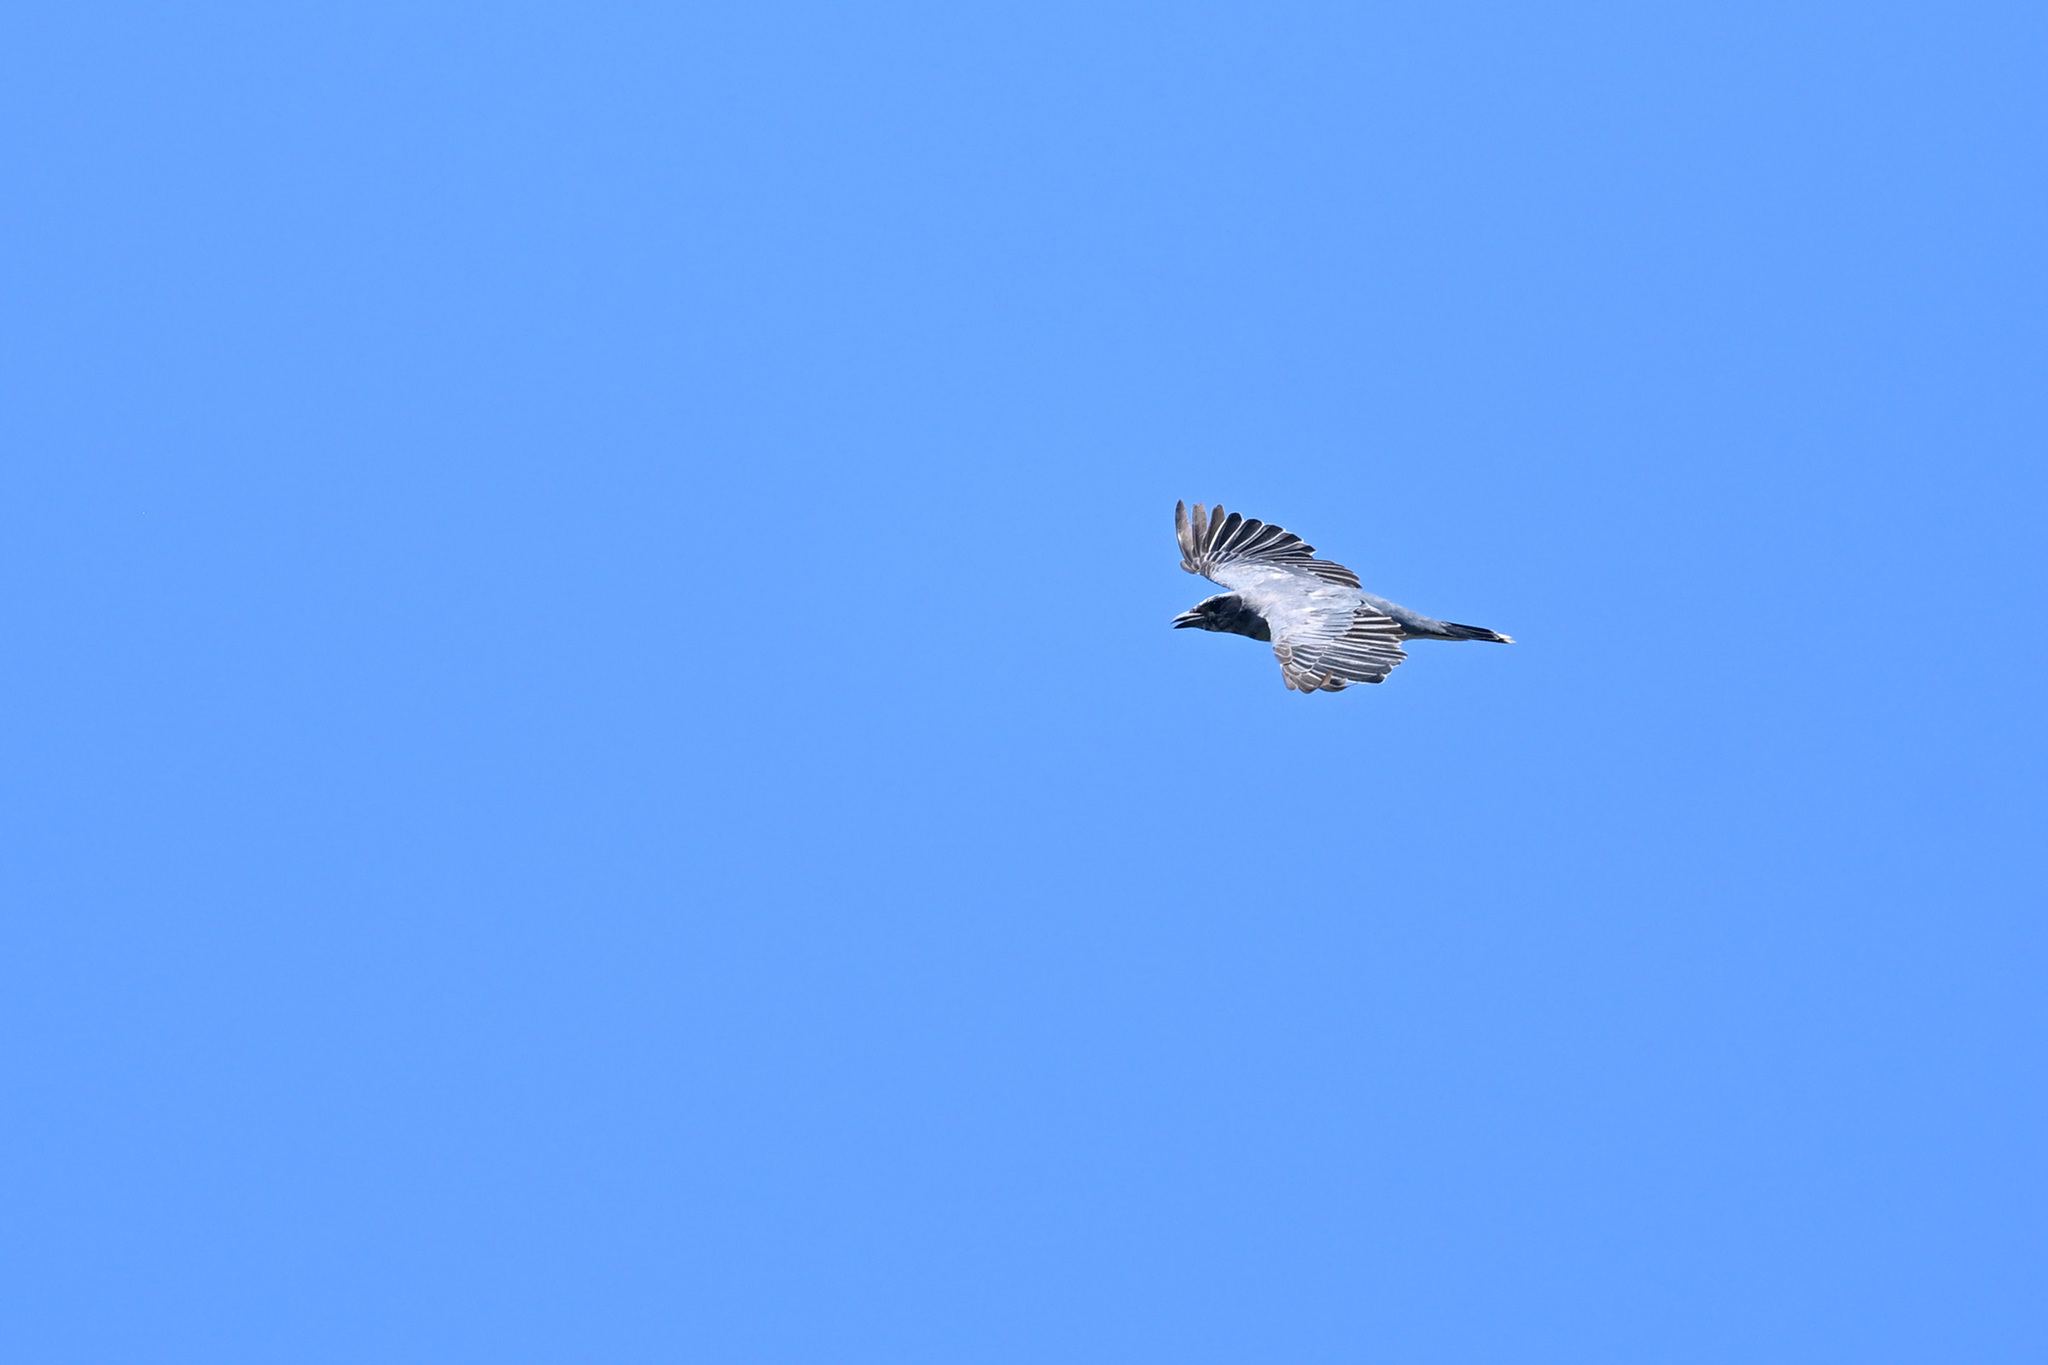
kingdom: Animalia
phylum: Chordata
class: Aves
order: Passeriformes
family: Campephagidae
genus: Coracina
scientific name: Coracina novaehollandiae
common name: Black-faced cuckooshrike
